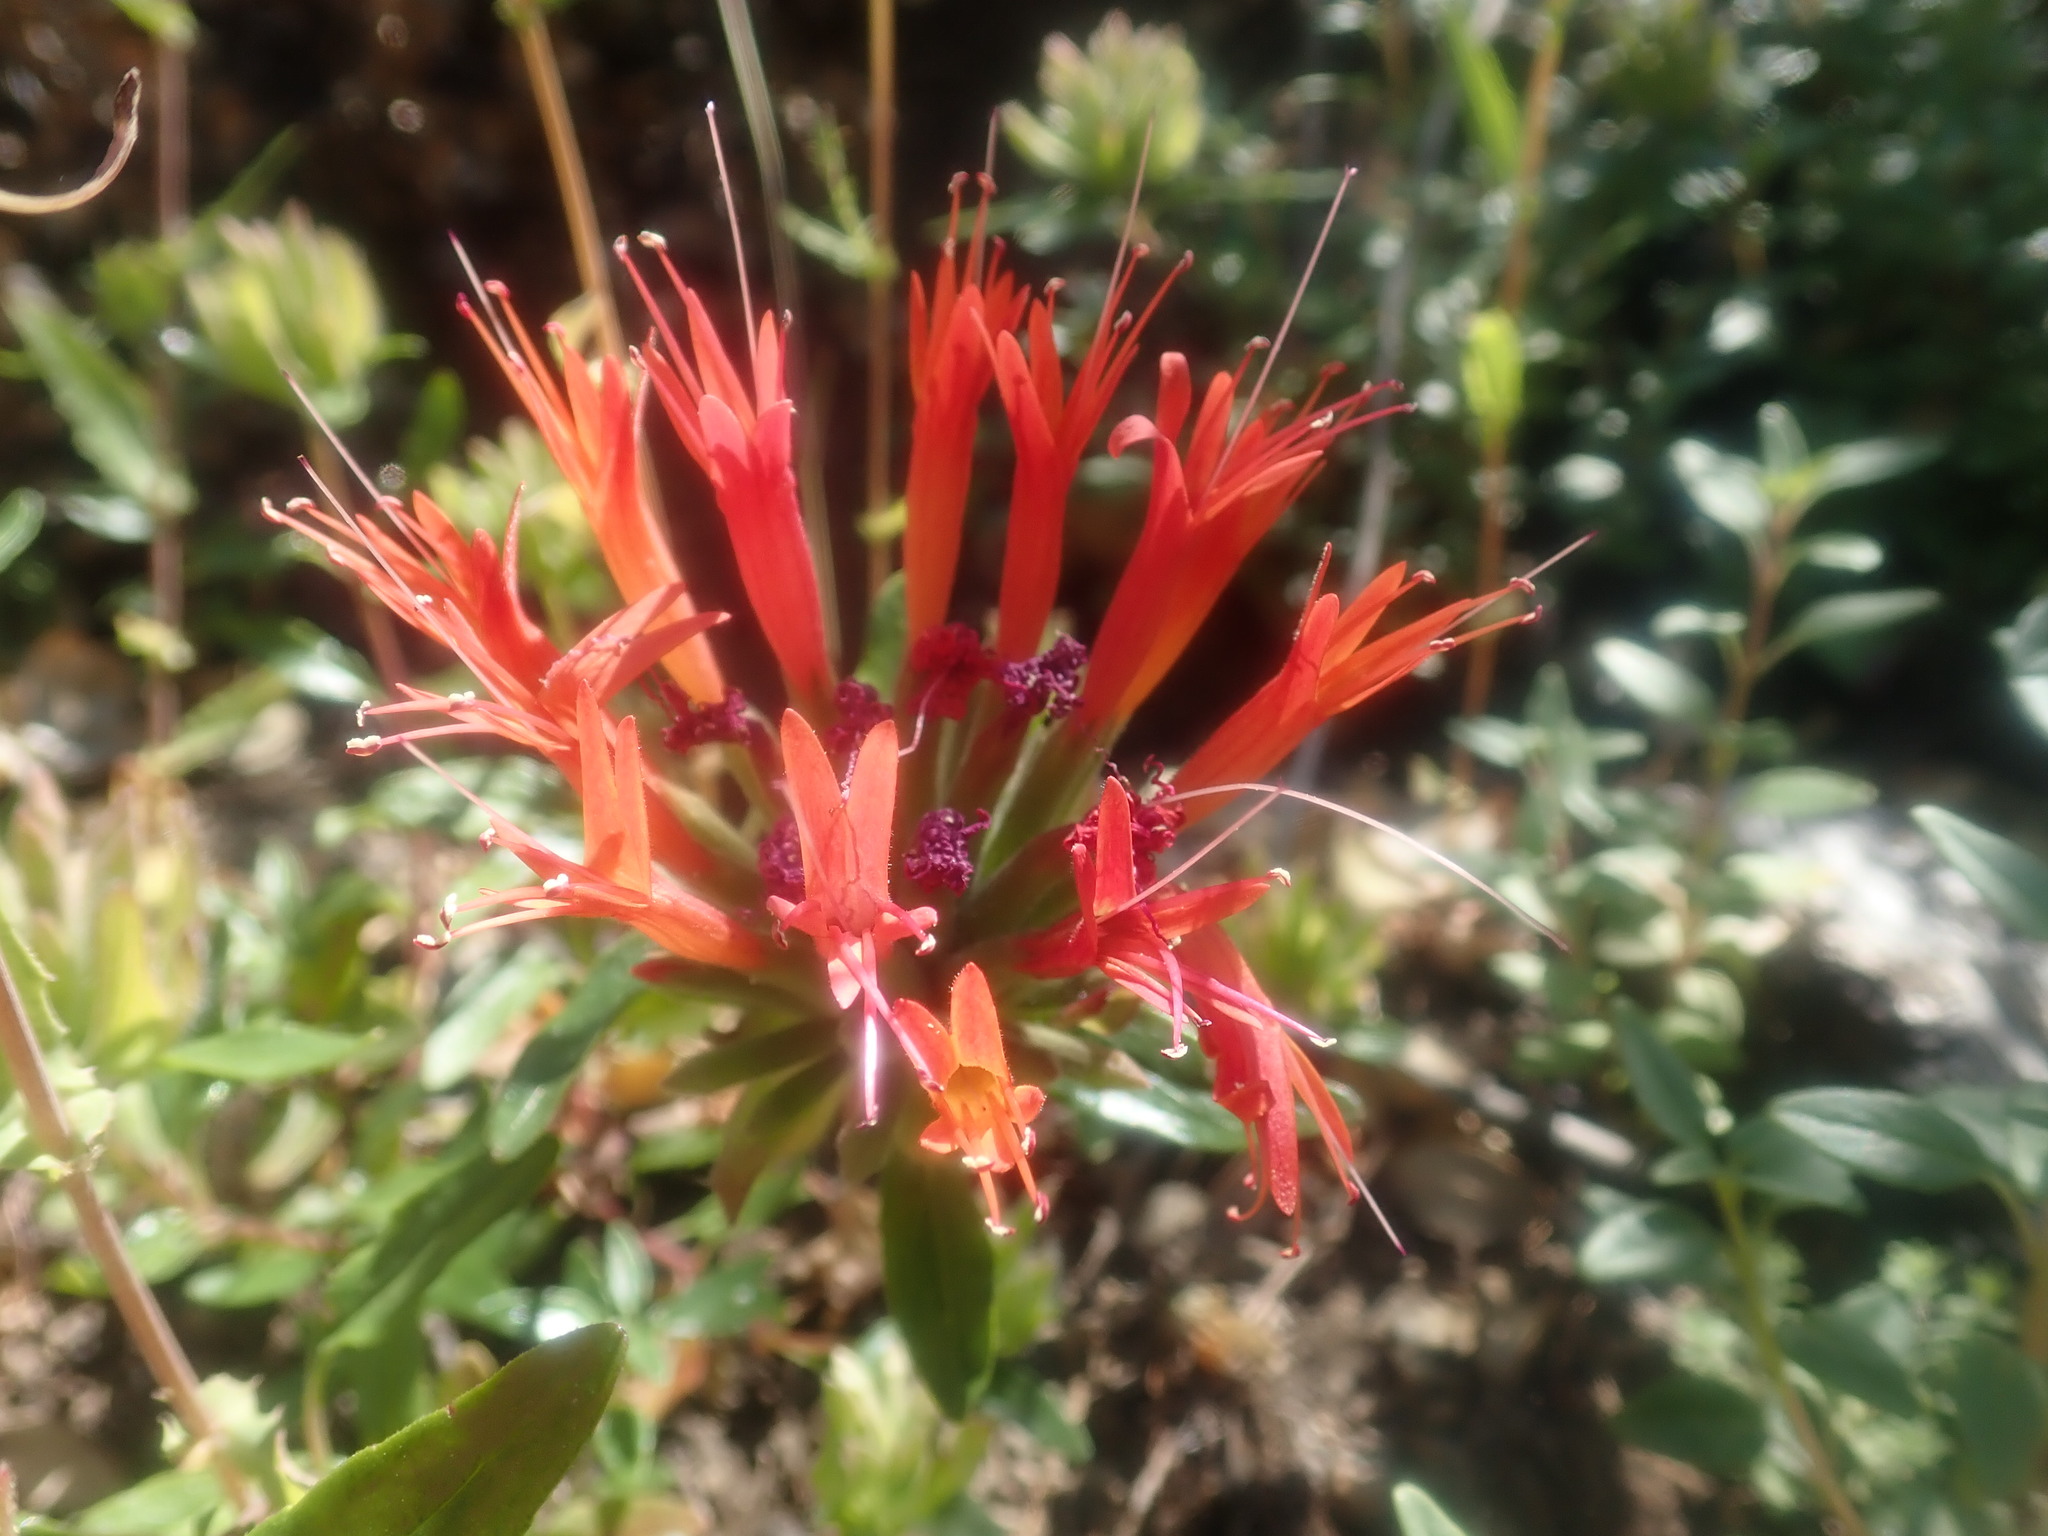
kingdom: Plantae
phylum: Tracheophyta
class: Magnoliopsida
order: Lamiales
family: Lamiaceae
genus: Monardella
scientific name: Monardella macrantha
